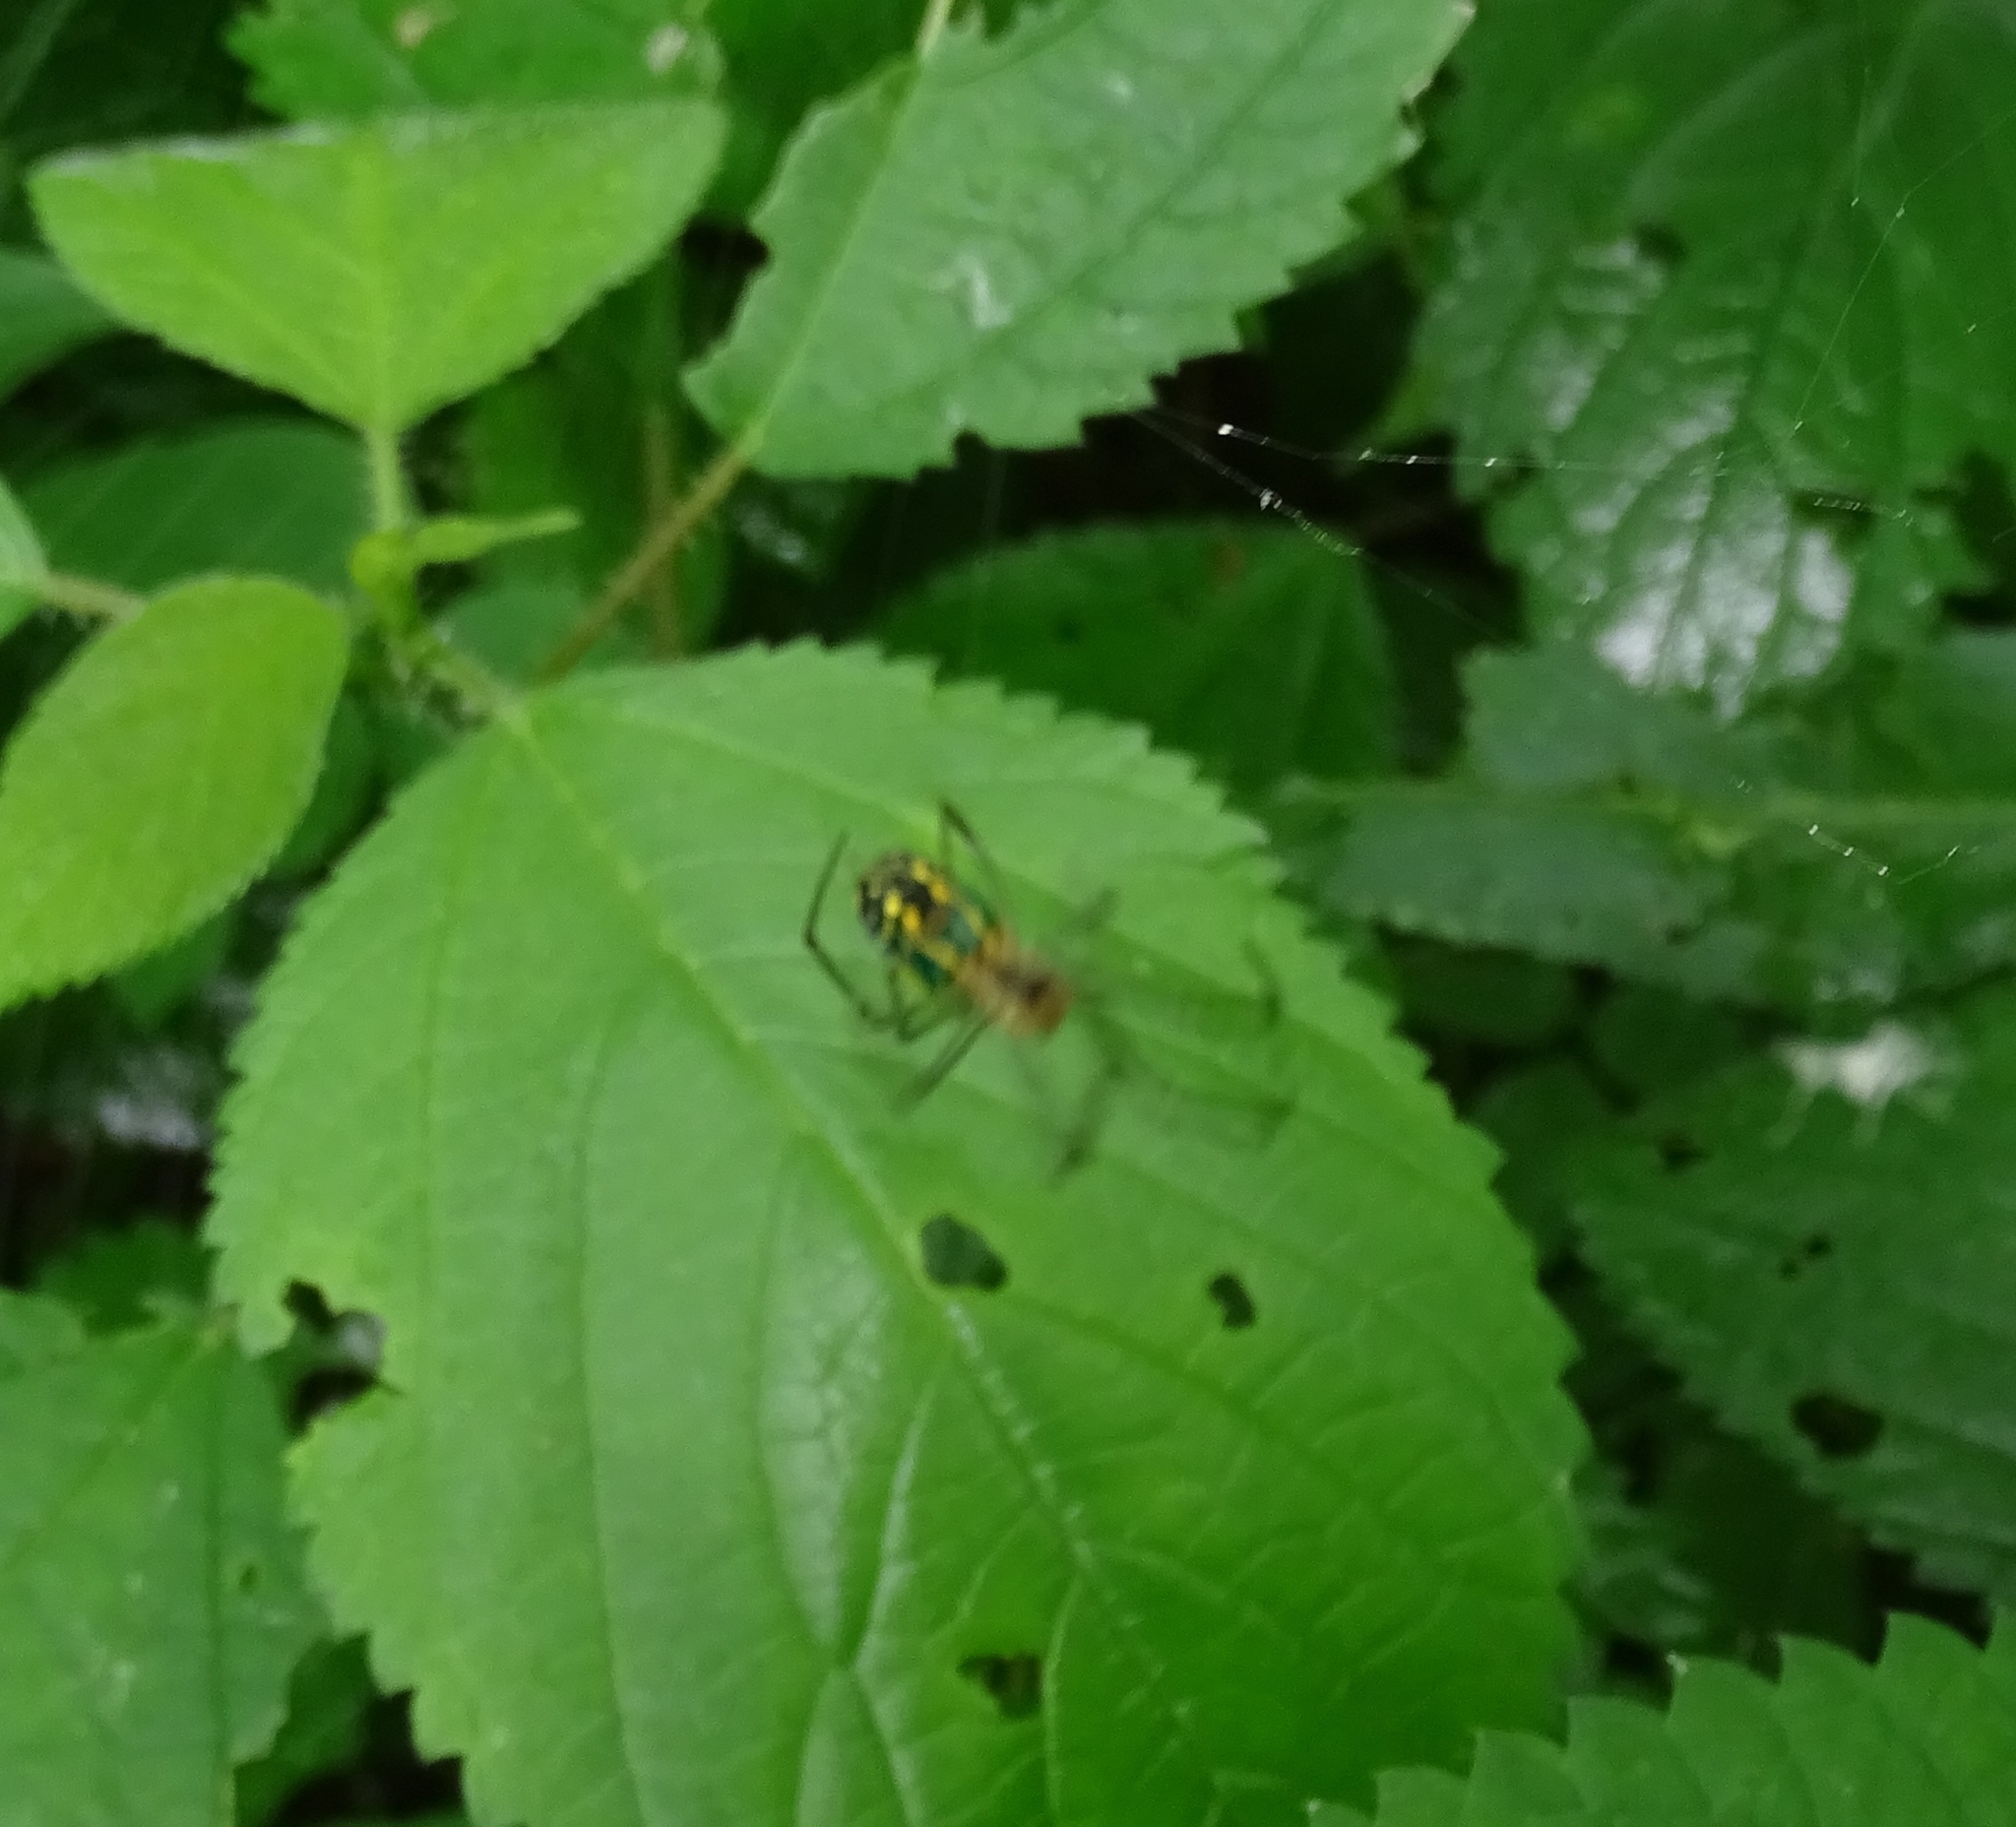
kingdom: Animalia
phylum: Arthropoda
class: Arachnida
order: Araneae
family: Tetragnathidae
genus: Leucauge
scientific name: Leucauge venusta
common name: Longjawed orb weavers
